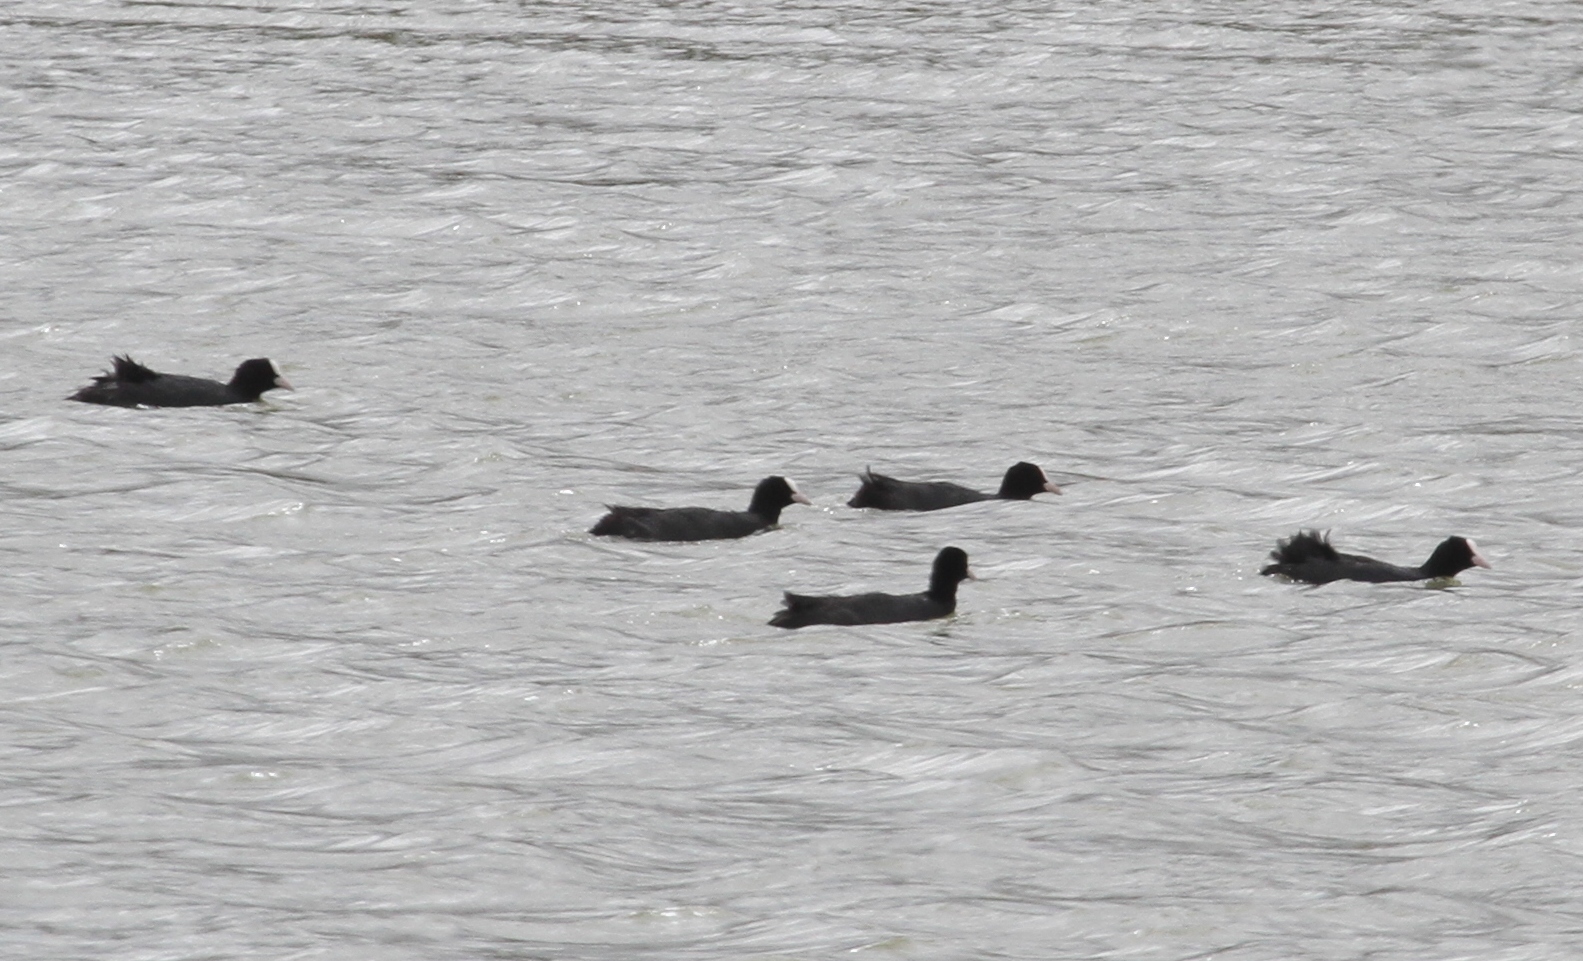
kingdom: Animalia
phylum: Chordata
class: Aves
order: Gruiformes
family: Rallidae
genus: Fulica
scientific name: Fulica atra
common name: Eurasian coot
